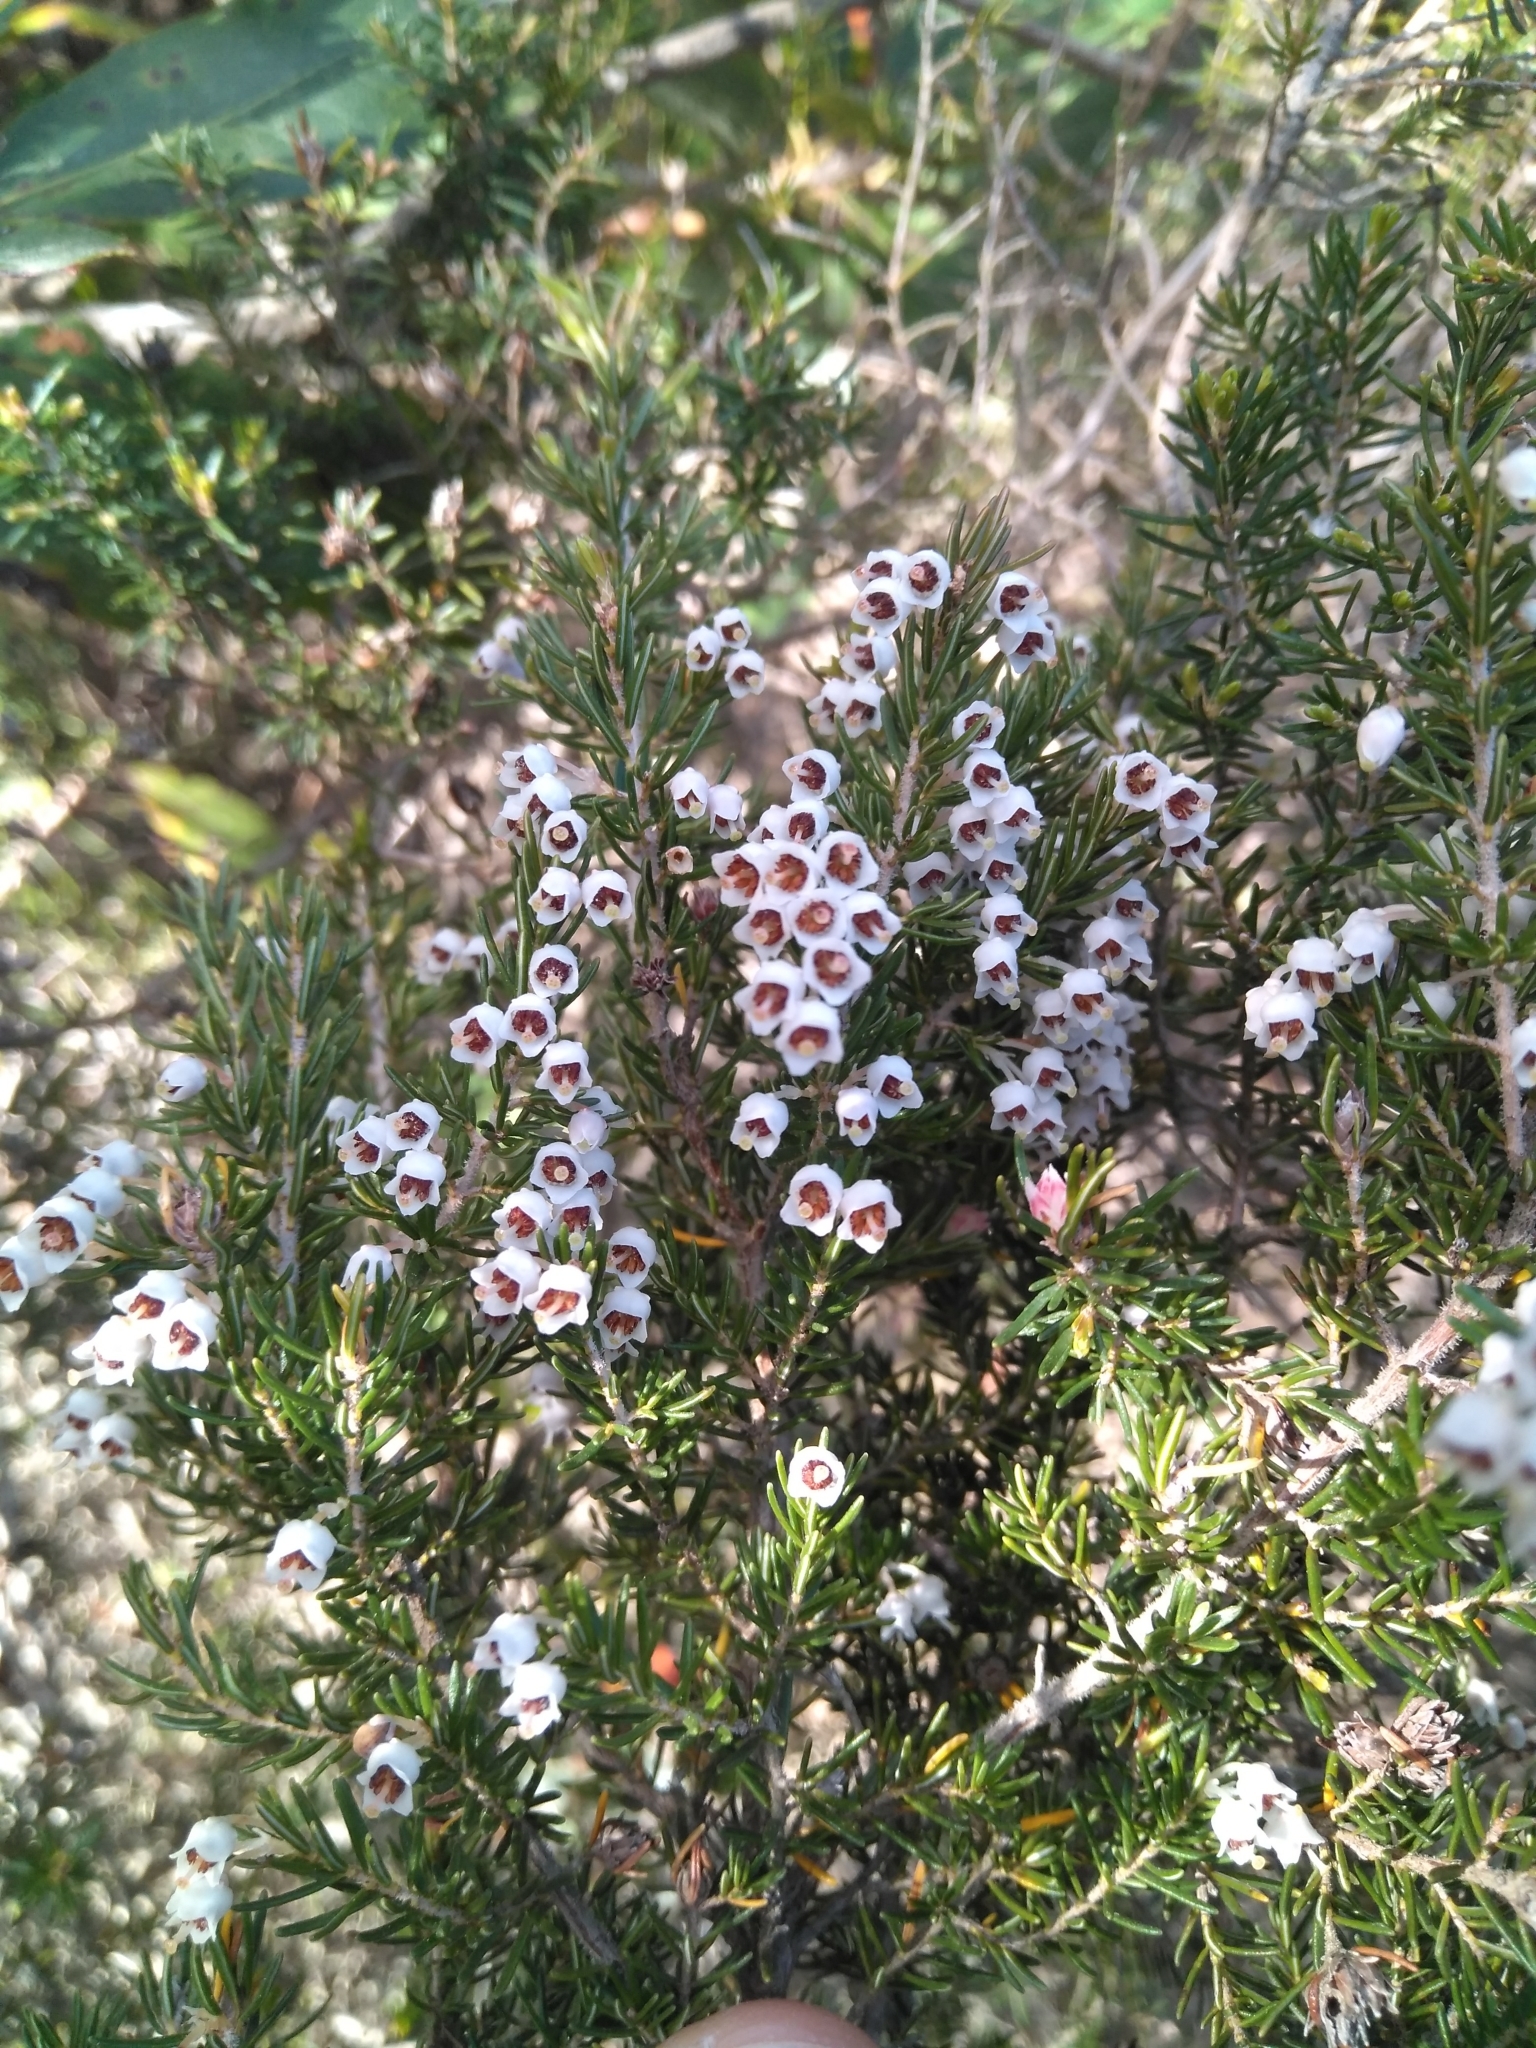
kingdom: Plantae
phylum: Tracheophyta
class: Magnoliopsida
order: Ericales
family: Ericaceae
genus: Erica
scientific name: Erica arborea
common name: Tree heath
